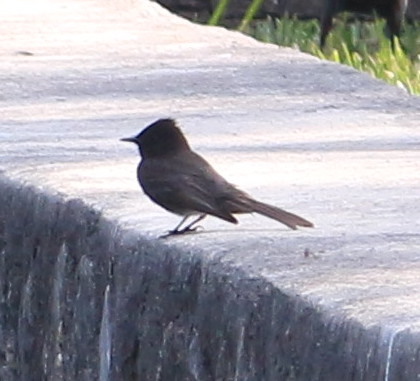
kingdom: Animalia
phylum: Chordata
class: Aves
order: Passeriformes
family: Tyrannidae
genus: Sayornis
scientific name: Sayornis nigricans
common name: Black phoebe
